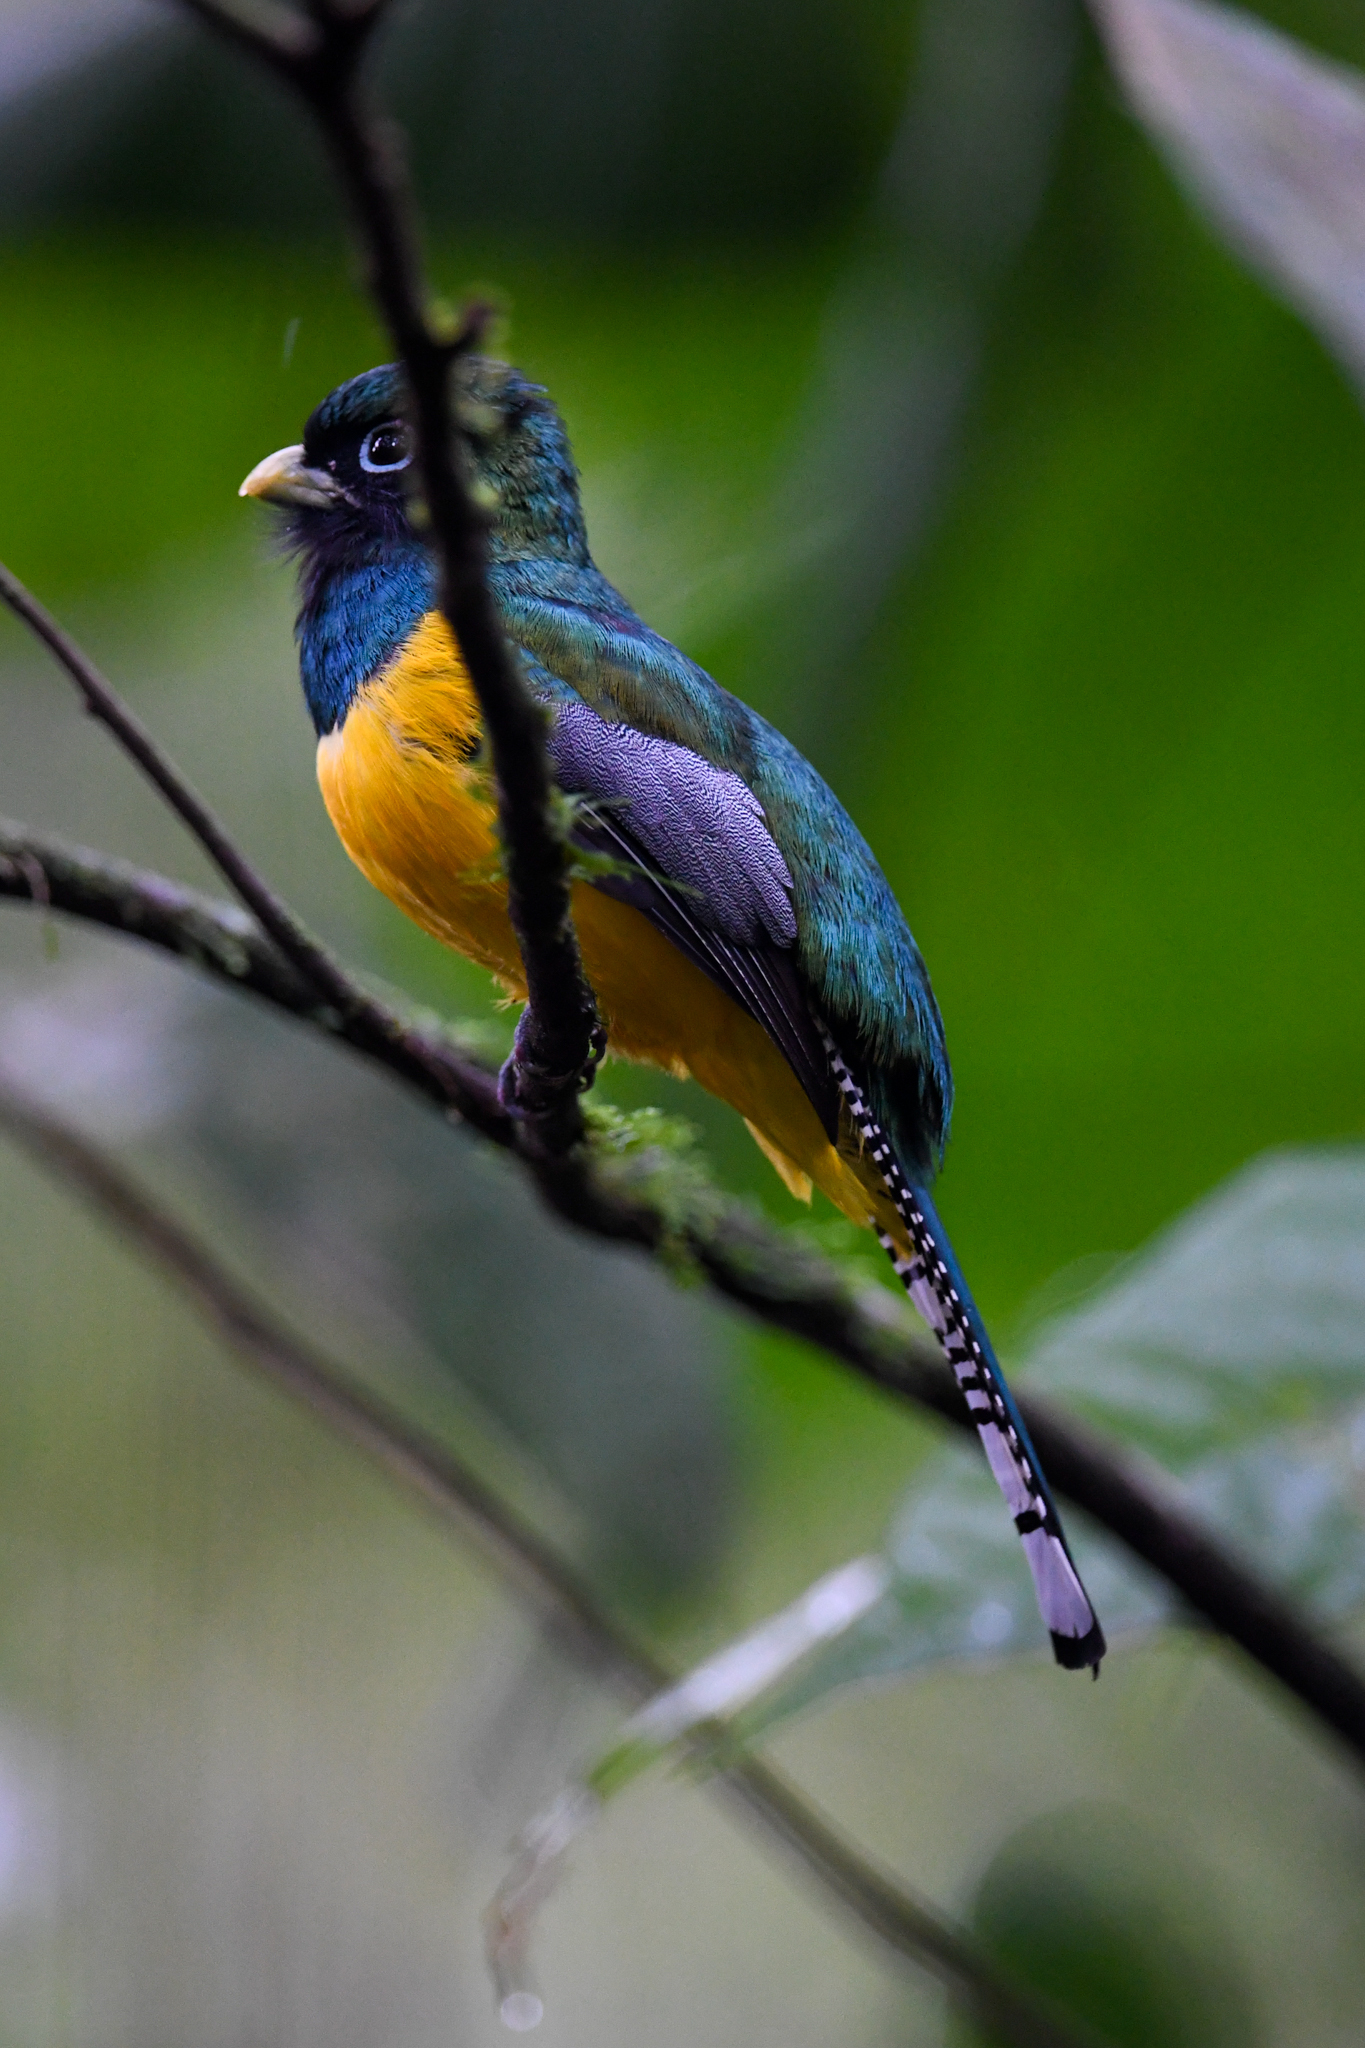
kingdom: Animalia
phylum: Chordata
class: Aves
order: Trogoniformes
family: Trogonidae
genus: Trogon
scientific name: Trogon rufus
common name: Black-throated trogon
